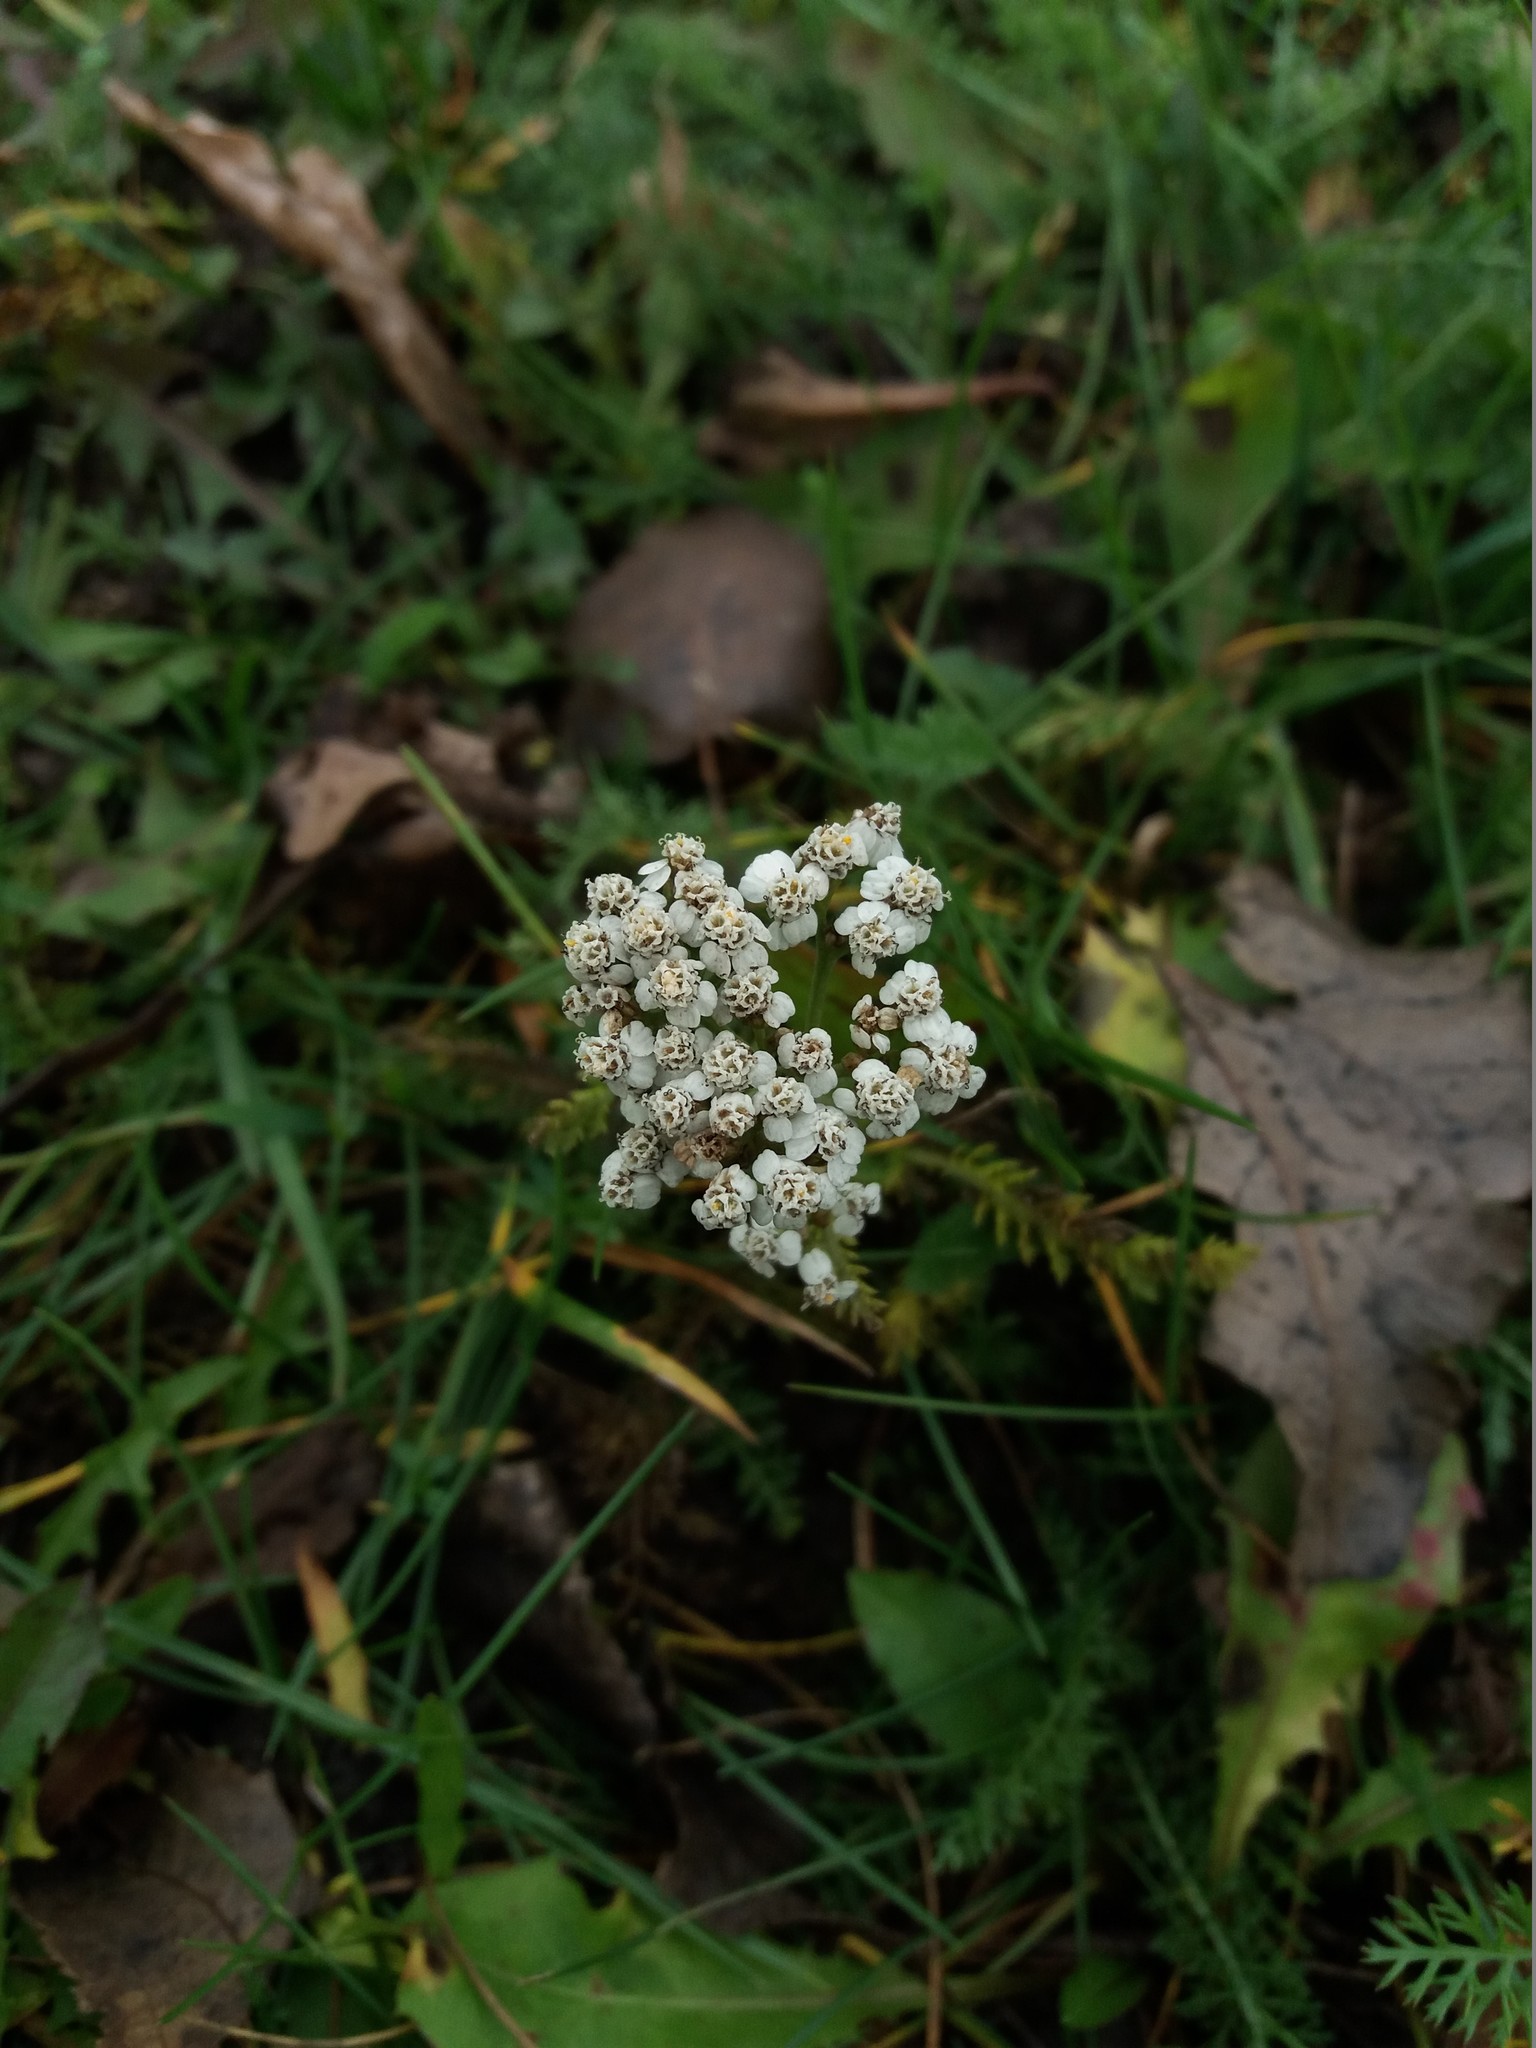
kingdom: Plantae
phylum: Tracheophyta
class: Magnoliopsida
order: Asterales
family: Asteraceae
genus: Achillea
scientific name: Achillea millefolium
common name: Yarrow
